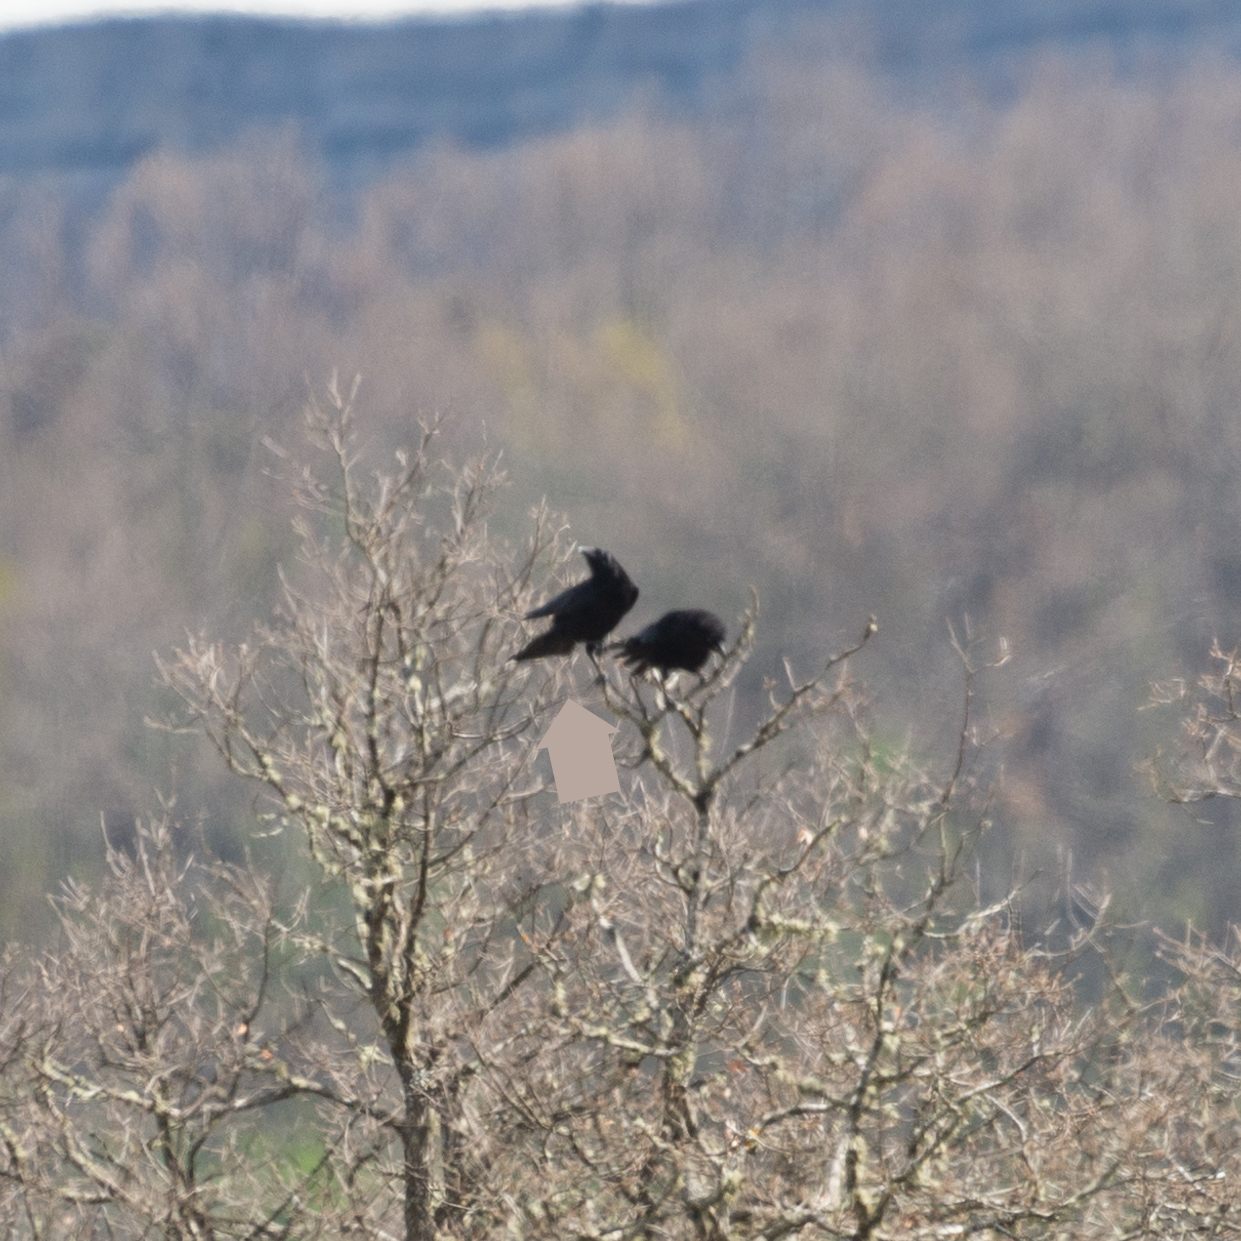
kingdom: Animalia
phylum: Chordata
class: Aves
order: Passeriformes
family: Corvidae
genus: Corvus
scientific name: Corvus corone
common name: Carrion crow
